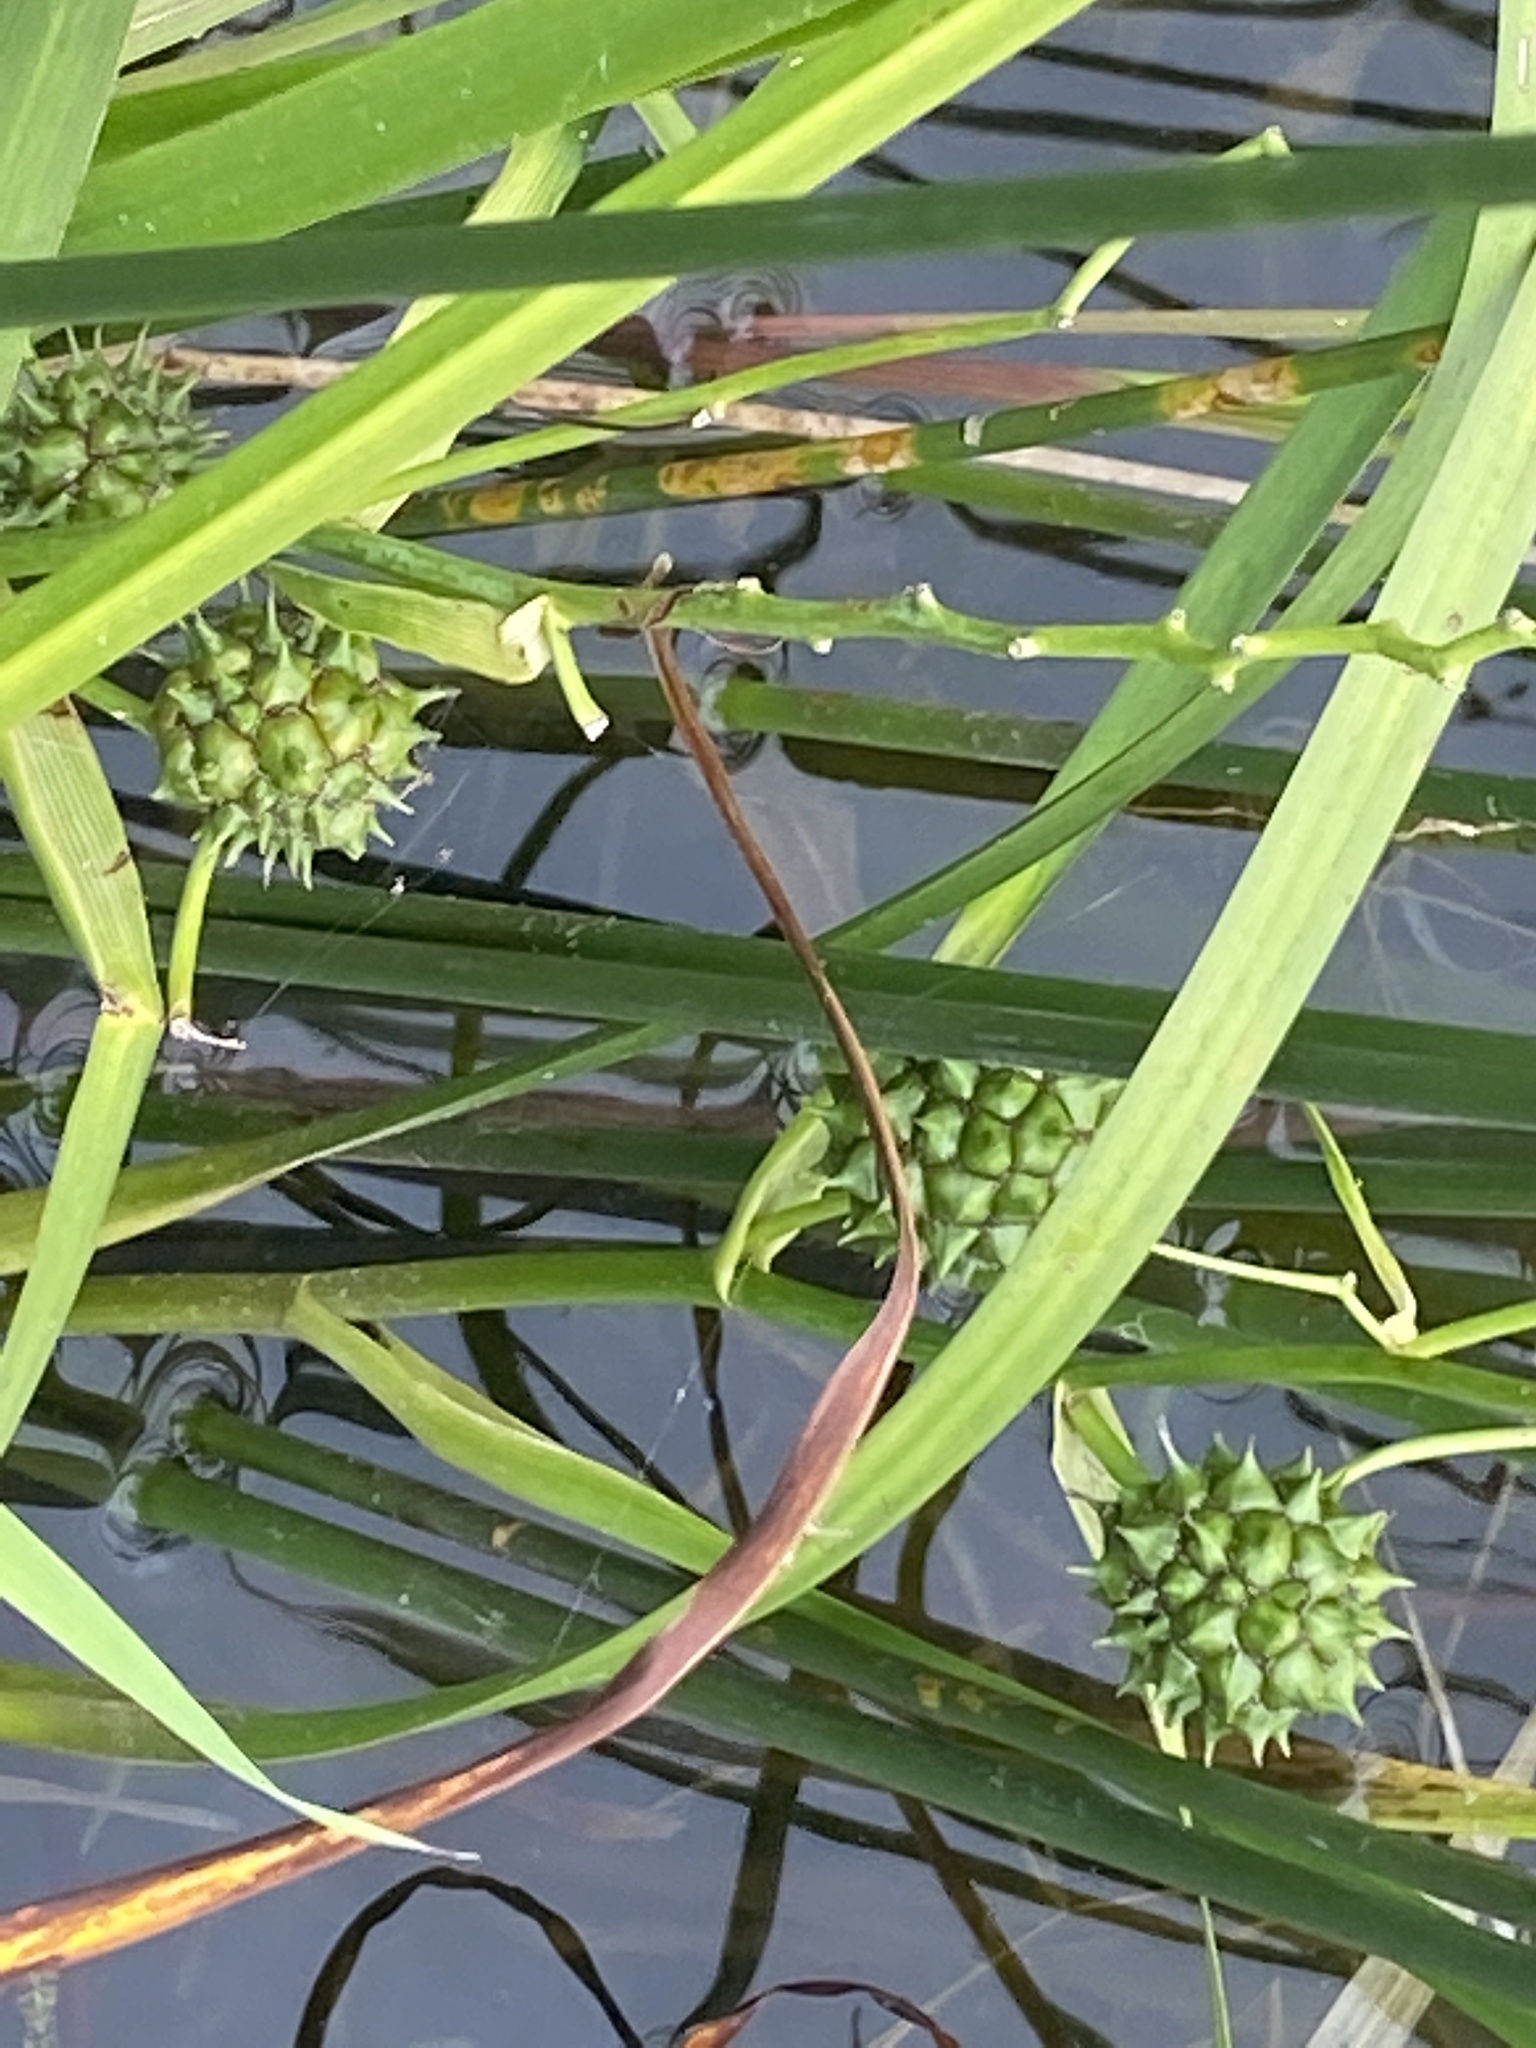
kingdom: Plantae
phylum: Tracheophyta
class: Liliopsida
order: Poales
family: Typhaceae
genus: Sparganium
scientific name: Sparganium eurycarpum
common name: Broad-fruited burreed
